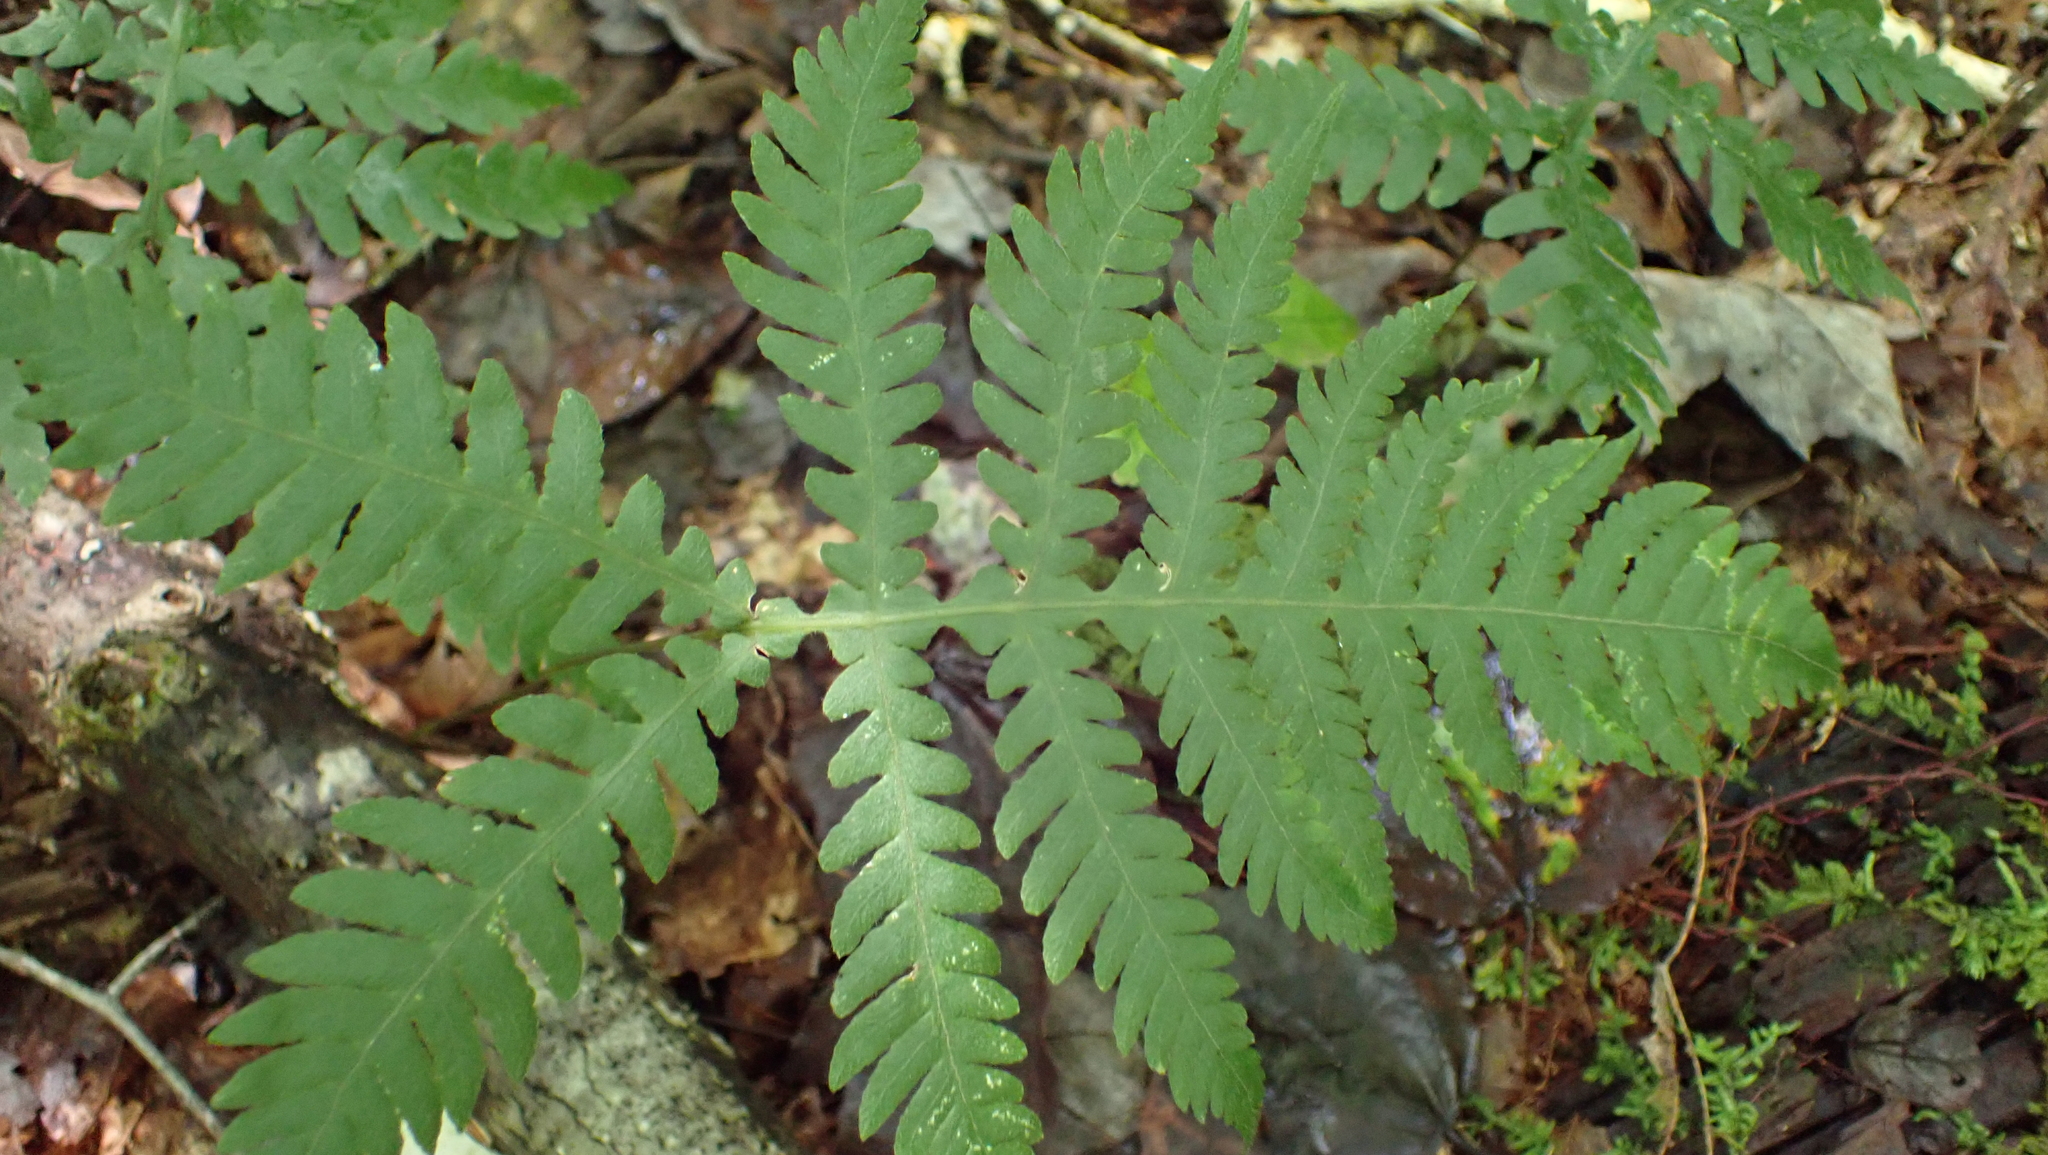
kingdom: Plantae
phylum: Tracheophyta
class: Polypodiopsida
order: Polypodiales
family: Thelypteridaceae
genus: Phegopteris
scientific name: Phegopteris hexagonoptera
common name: Broad beech fern
